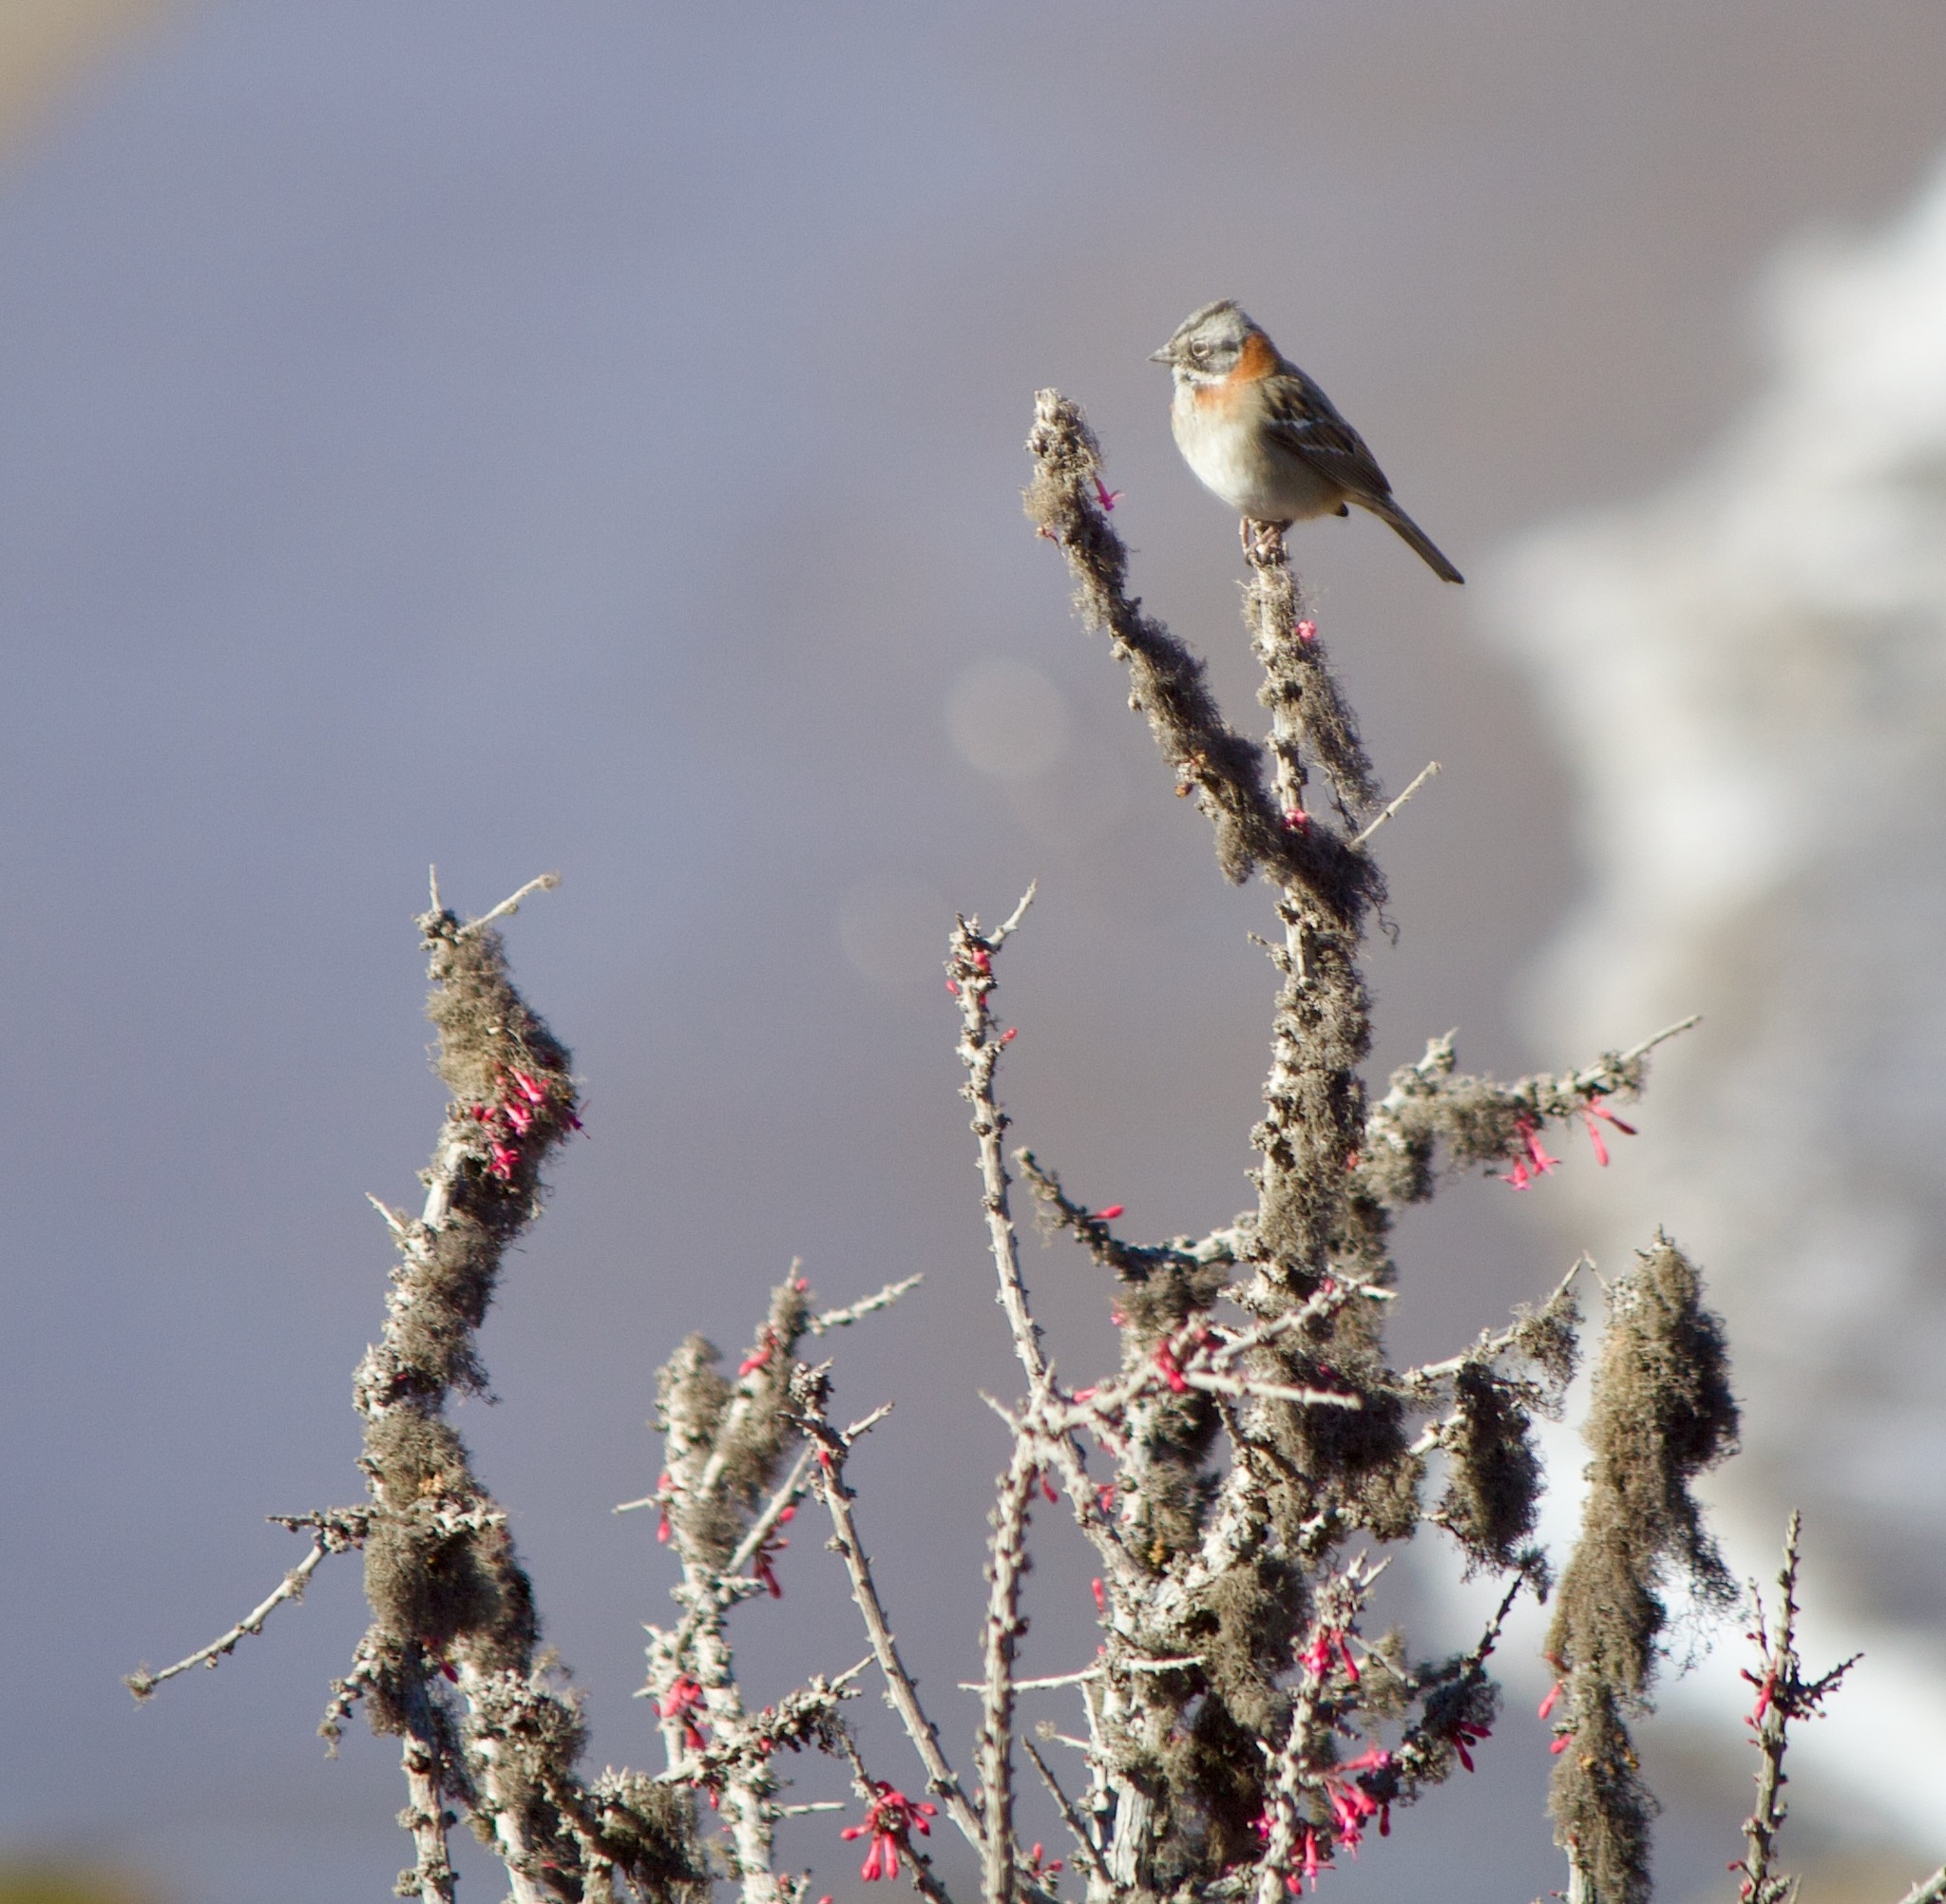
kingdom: Animalia
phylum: Chordata
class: Aves
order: Passeriformes
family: Passerellidae
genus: Zonotrichia
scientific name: Zonotrichia capensis
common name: Rufous-collared sparrow
